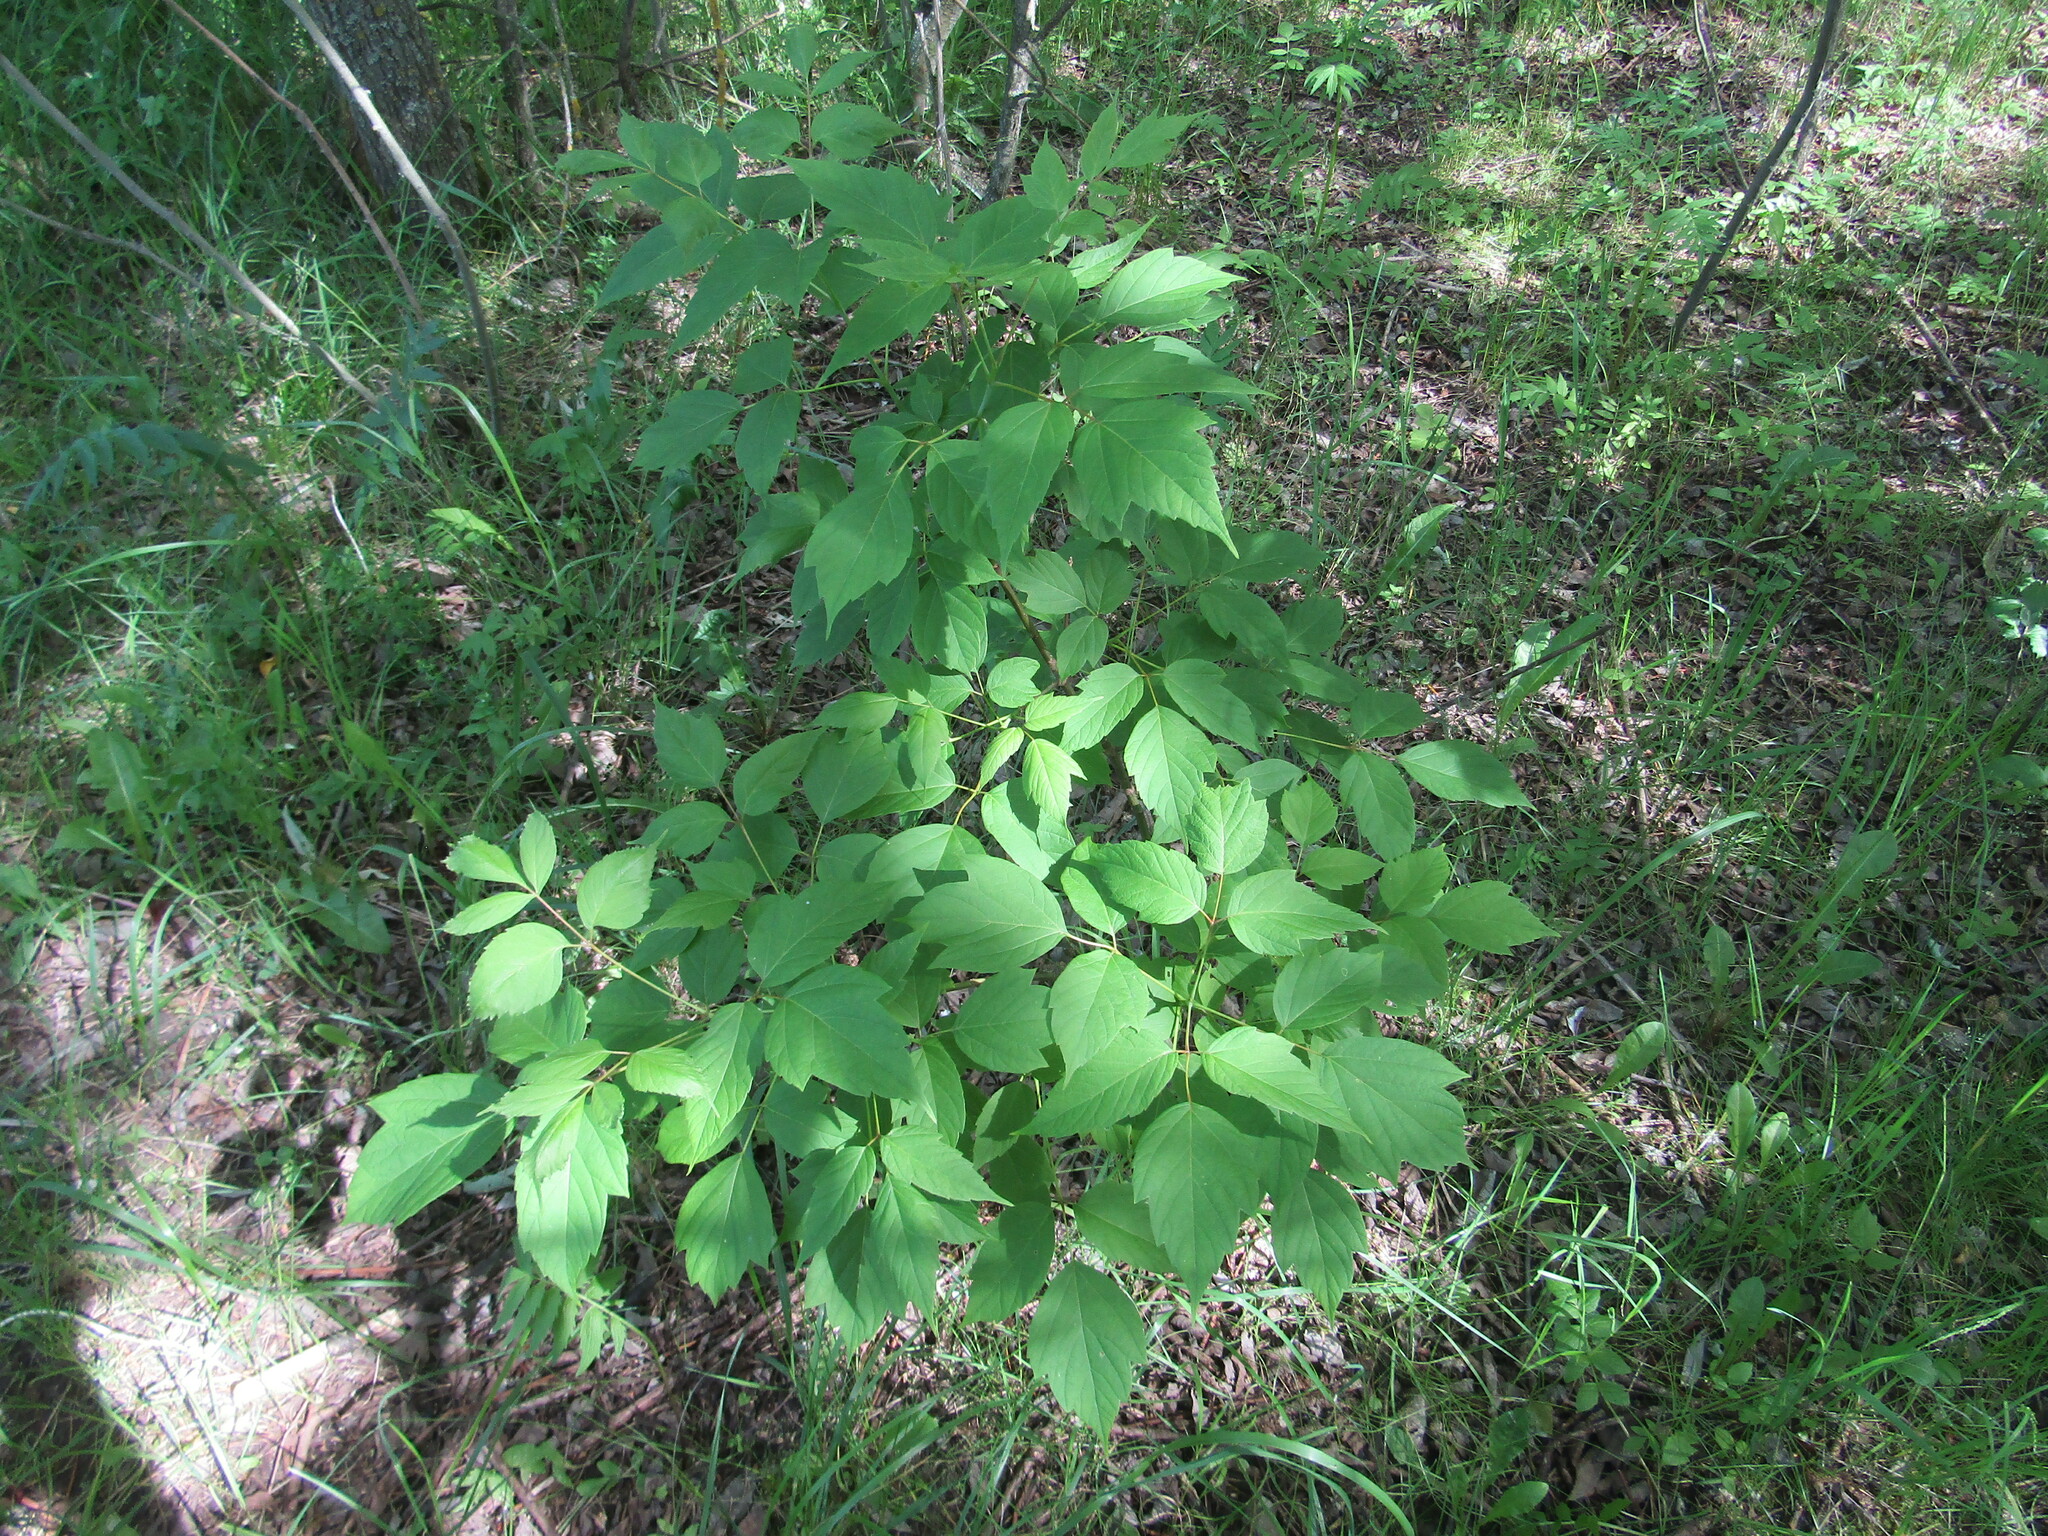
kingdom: Plantae
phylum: Tracheophyta
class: Magnoliopsida
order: Sapindales
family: Sapindaceae
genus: Acer
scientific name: Acer negundo
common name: Ashleaf maple
